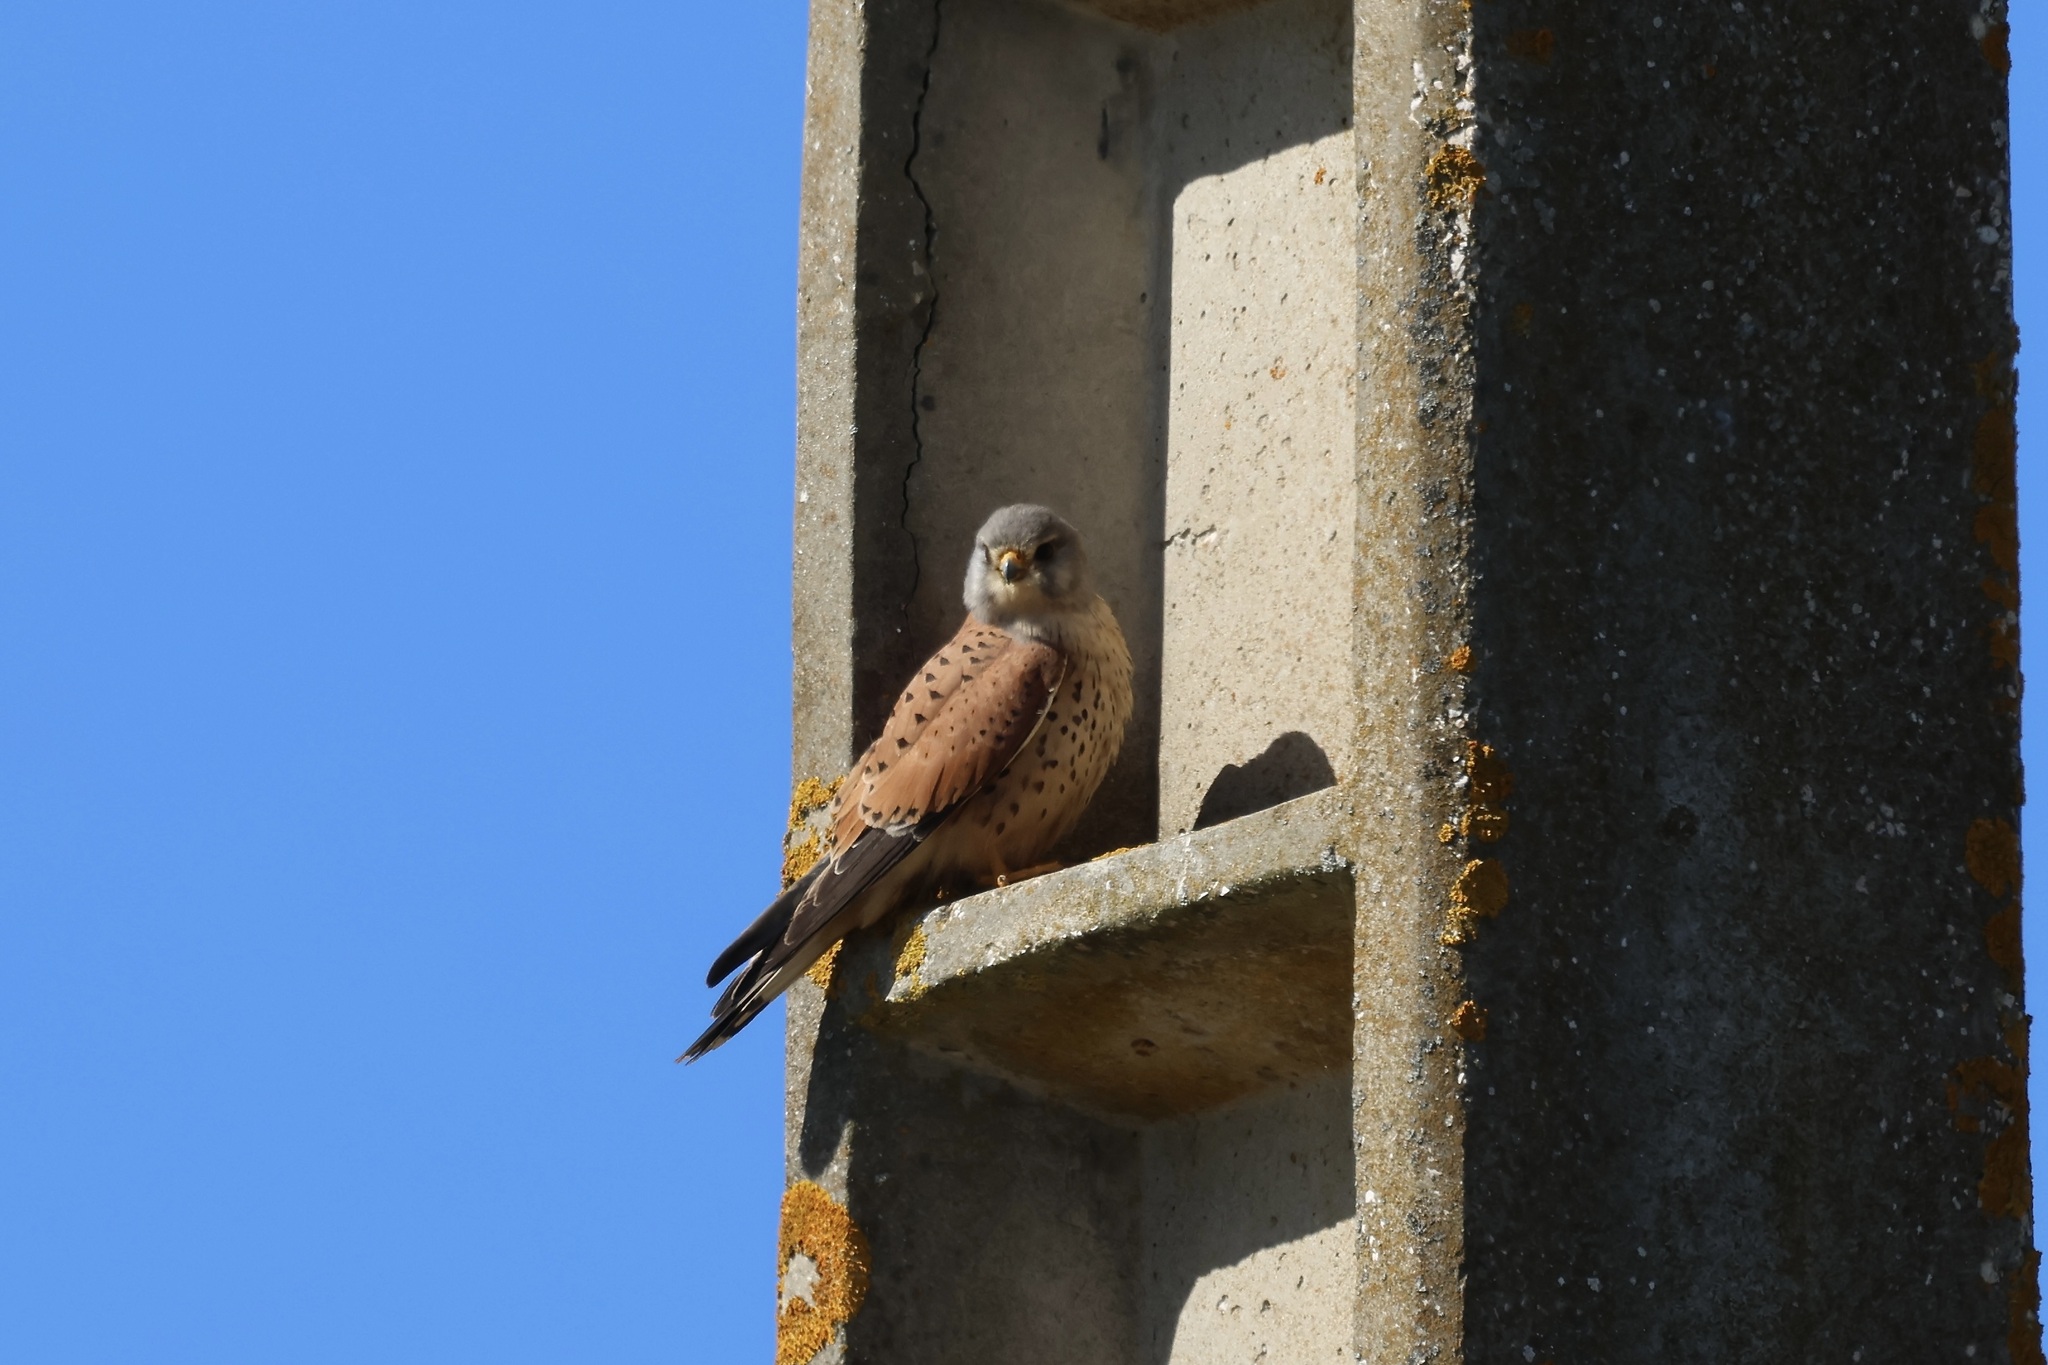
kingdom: Animalia
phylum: Chordata
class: Aves
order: Falconiformes
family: Falconidae
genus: Falco
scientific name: Falco tinnunculus
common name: Common kestrel
